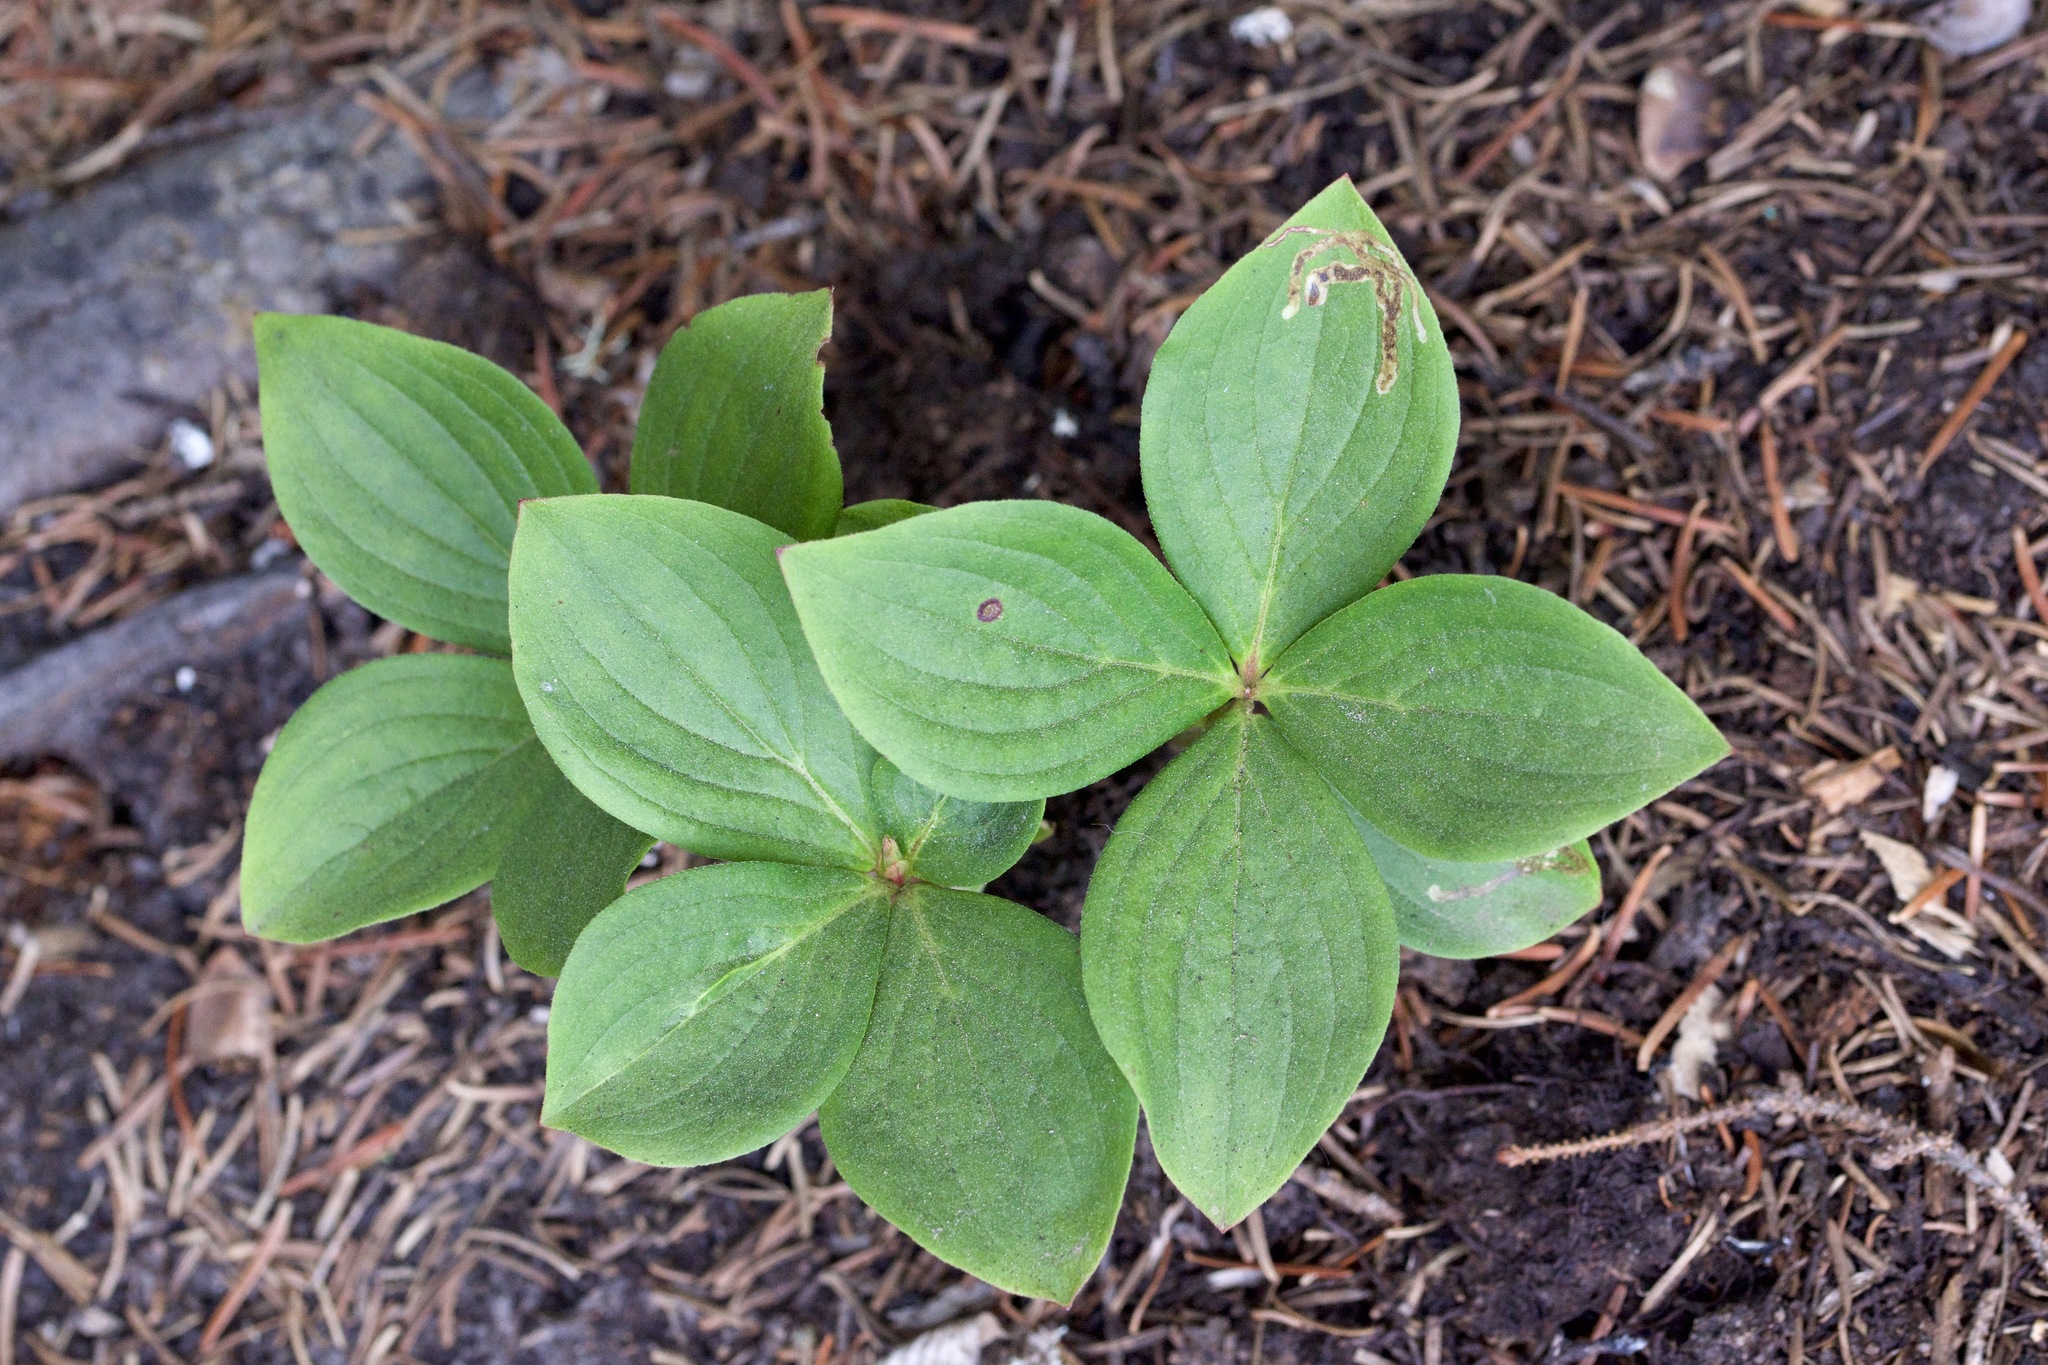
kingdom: Plantae
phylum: Tracheophyta
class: Magnoliopsida
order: Cornales
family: Cornaceae
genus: Cornus
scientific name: Cornus canadensis
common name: Creeping dogwood
